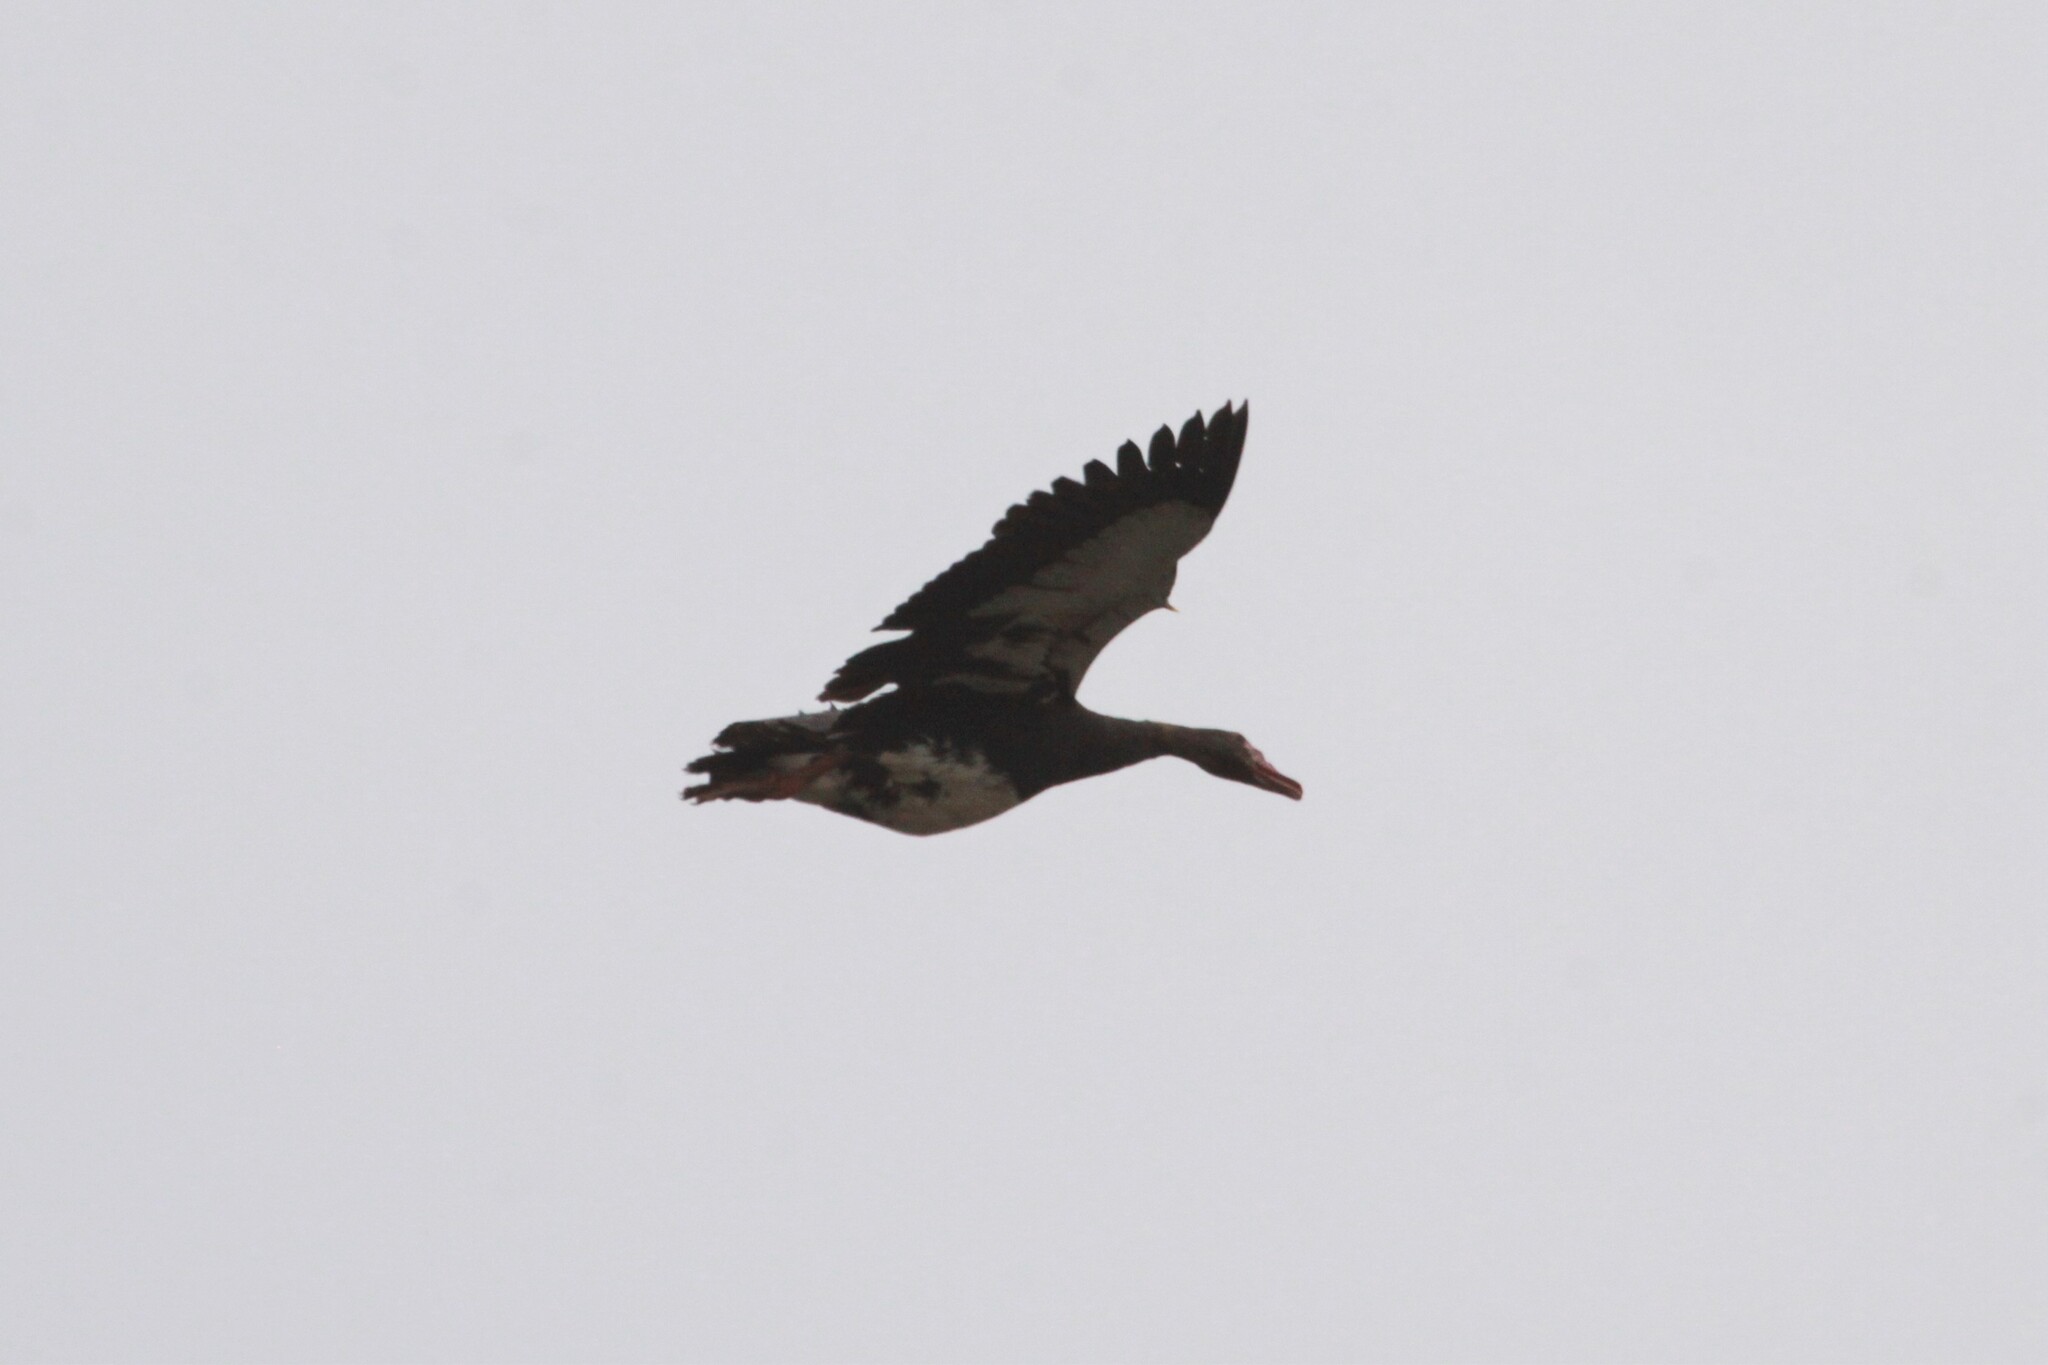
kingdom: Animalia
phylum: Chordata
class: Aves
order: Anseriformes
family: Anatidae
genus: Plectropterus
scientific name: Plectropterus gambensis
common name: Spur-winged goose
